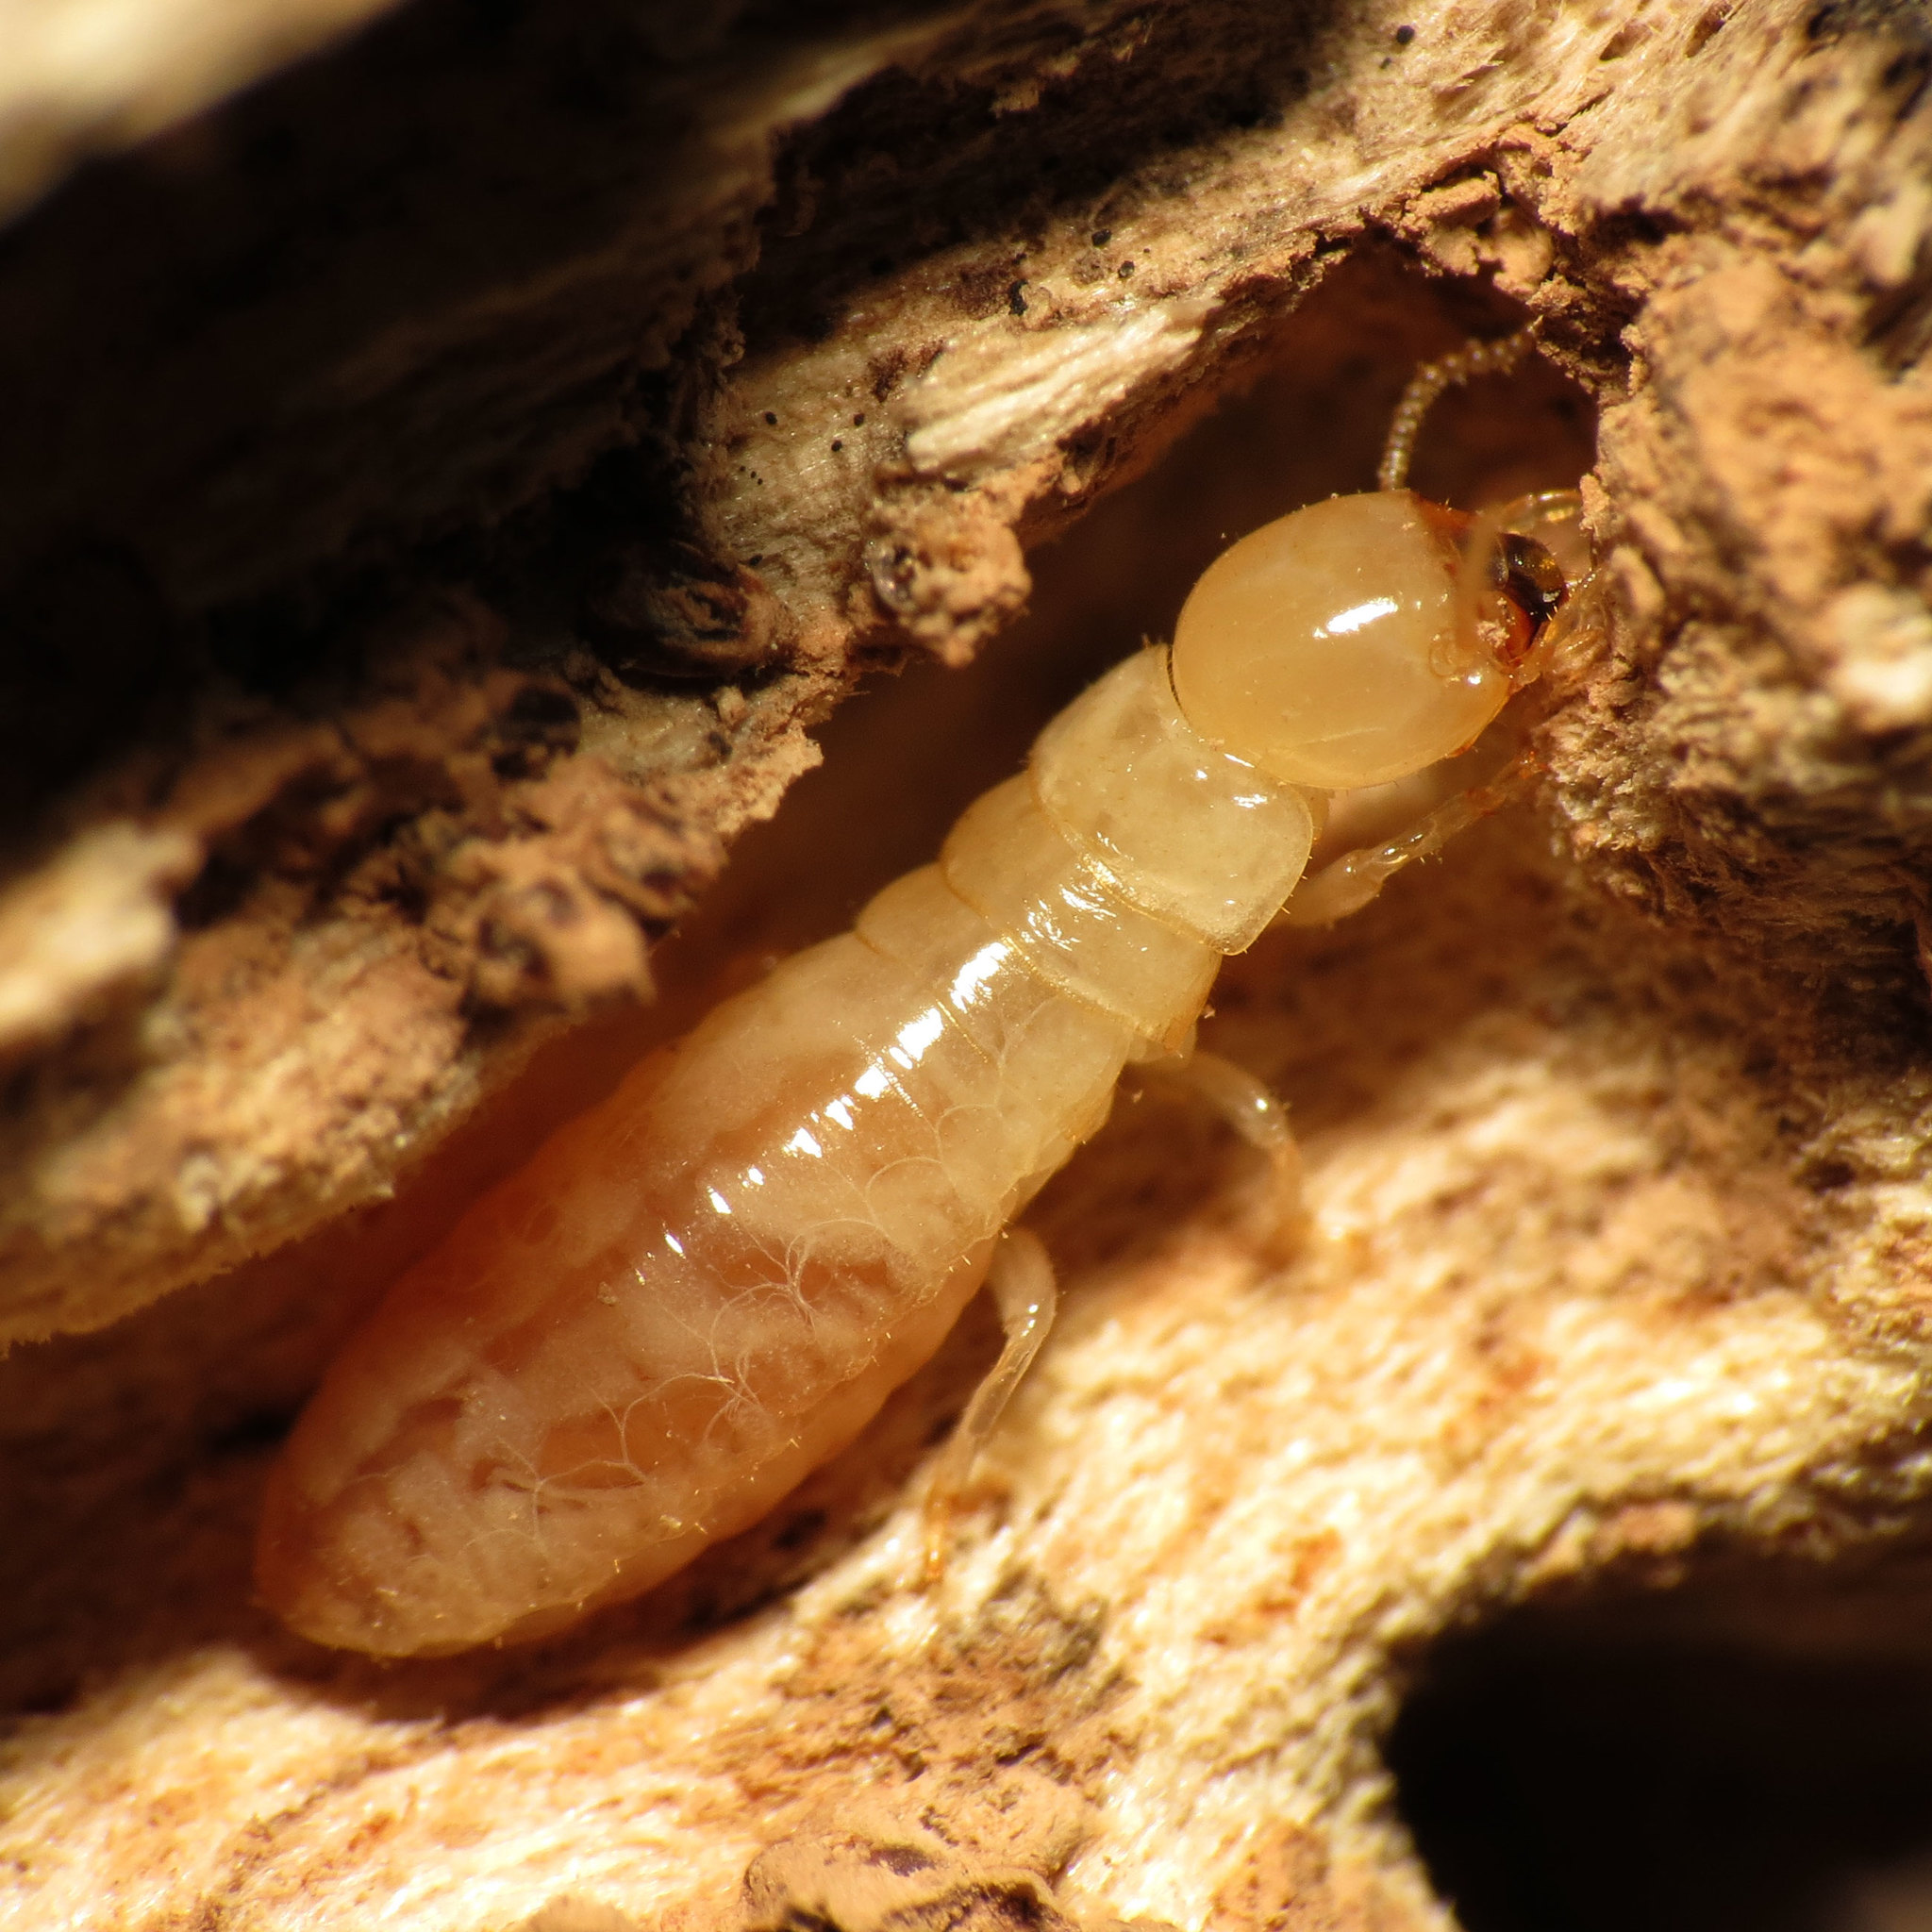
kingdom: Animalia
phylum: Arthropoda
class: Insecta
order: Blattodea
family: Kalotermitidae
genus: Kalotermes
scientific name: Kalotermes flavicollis
